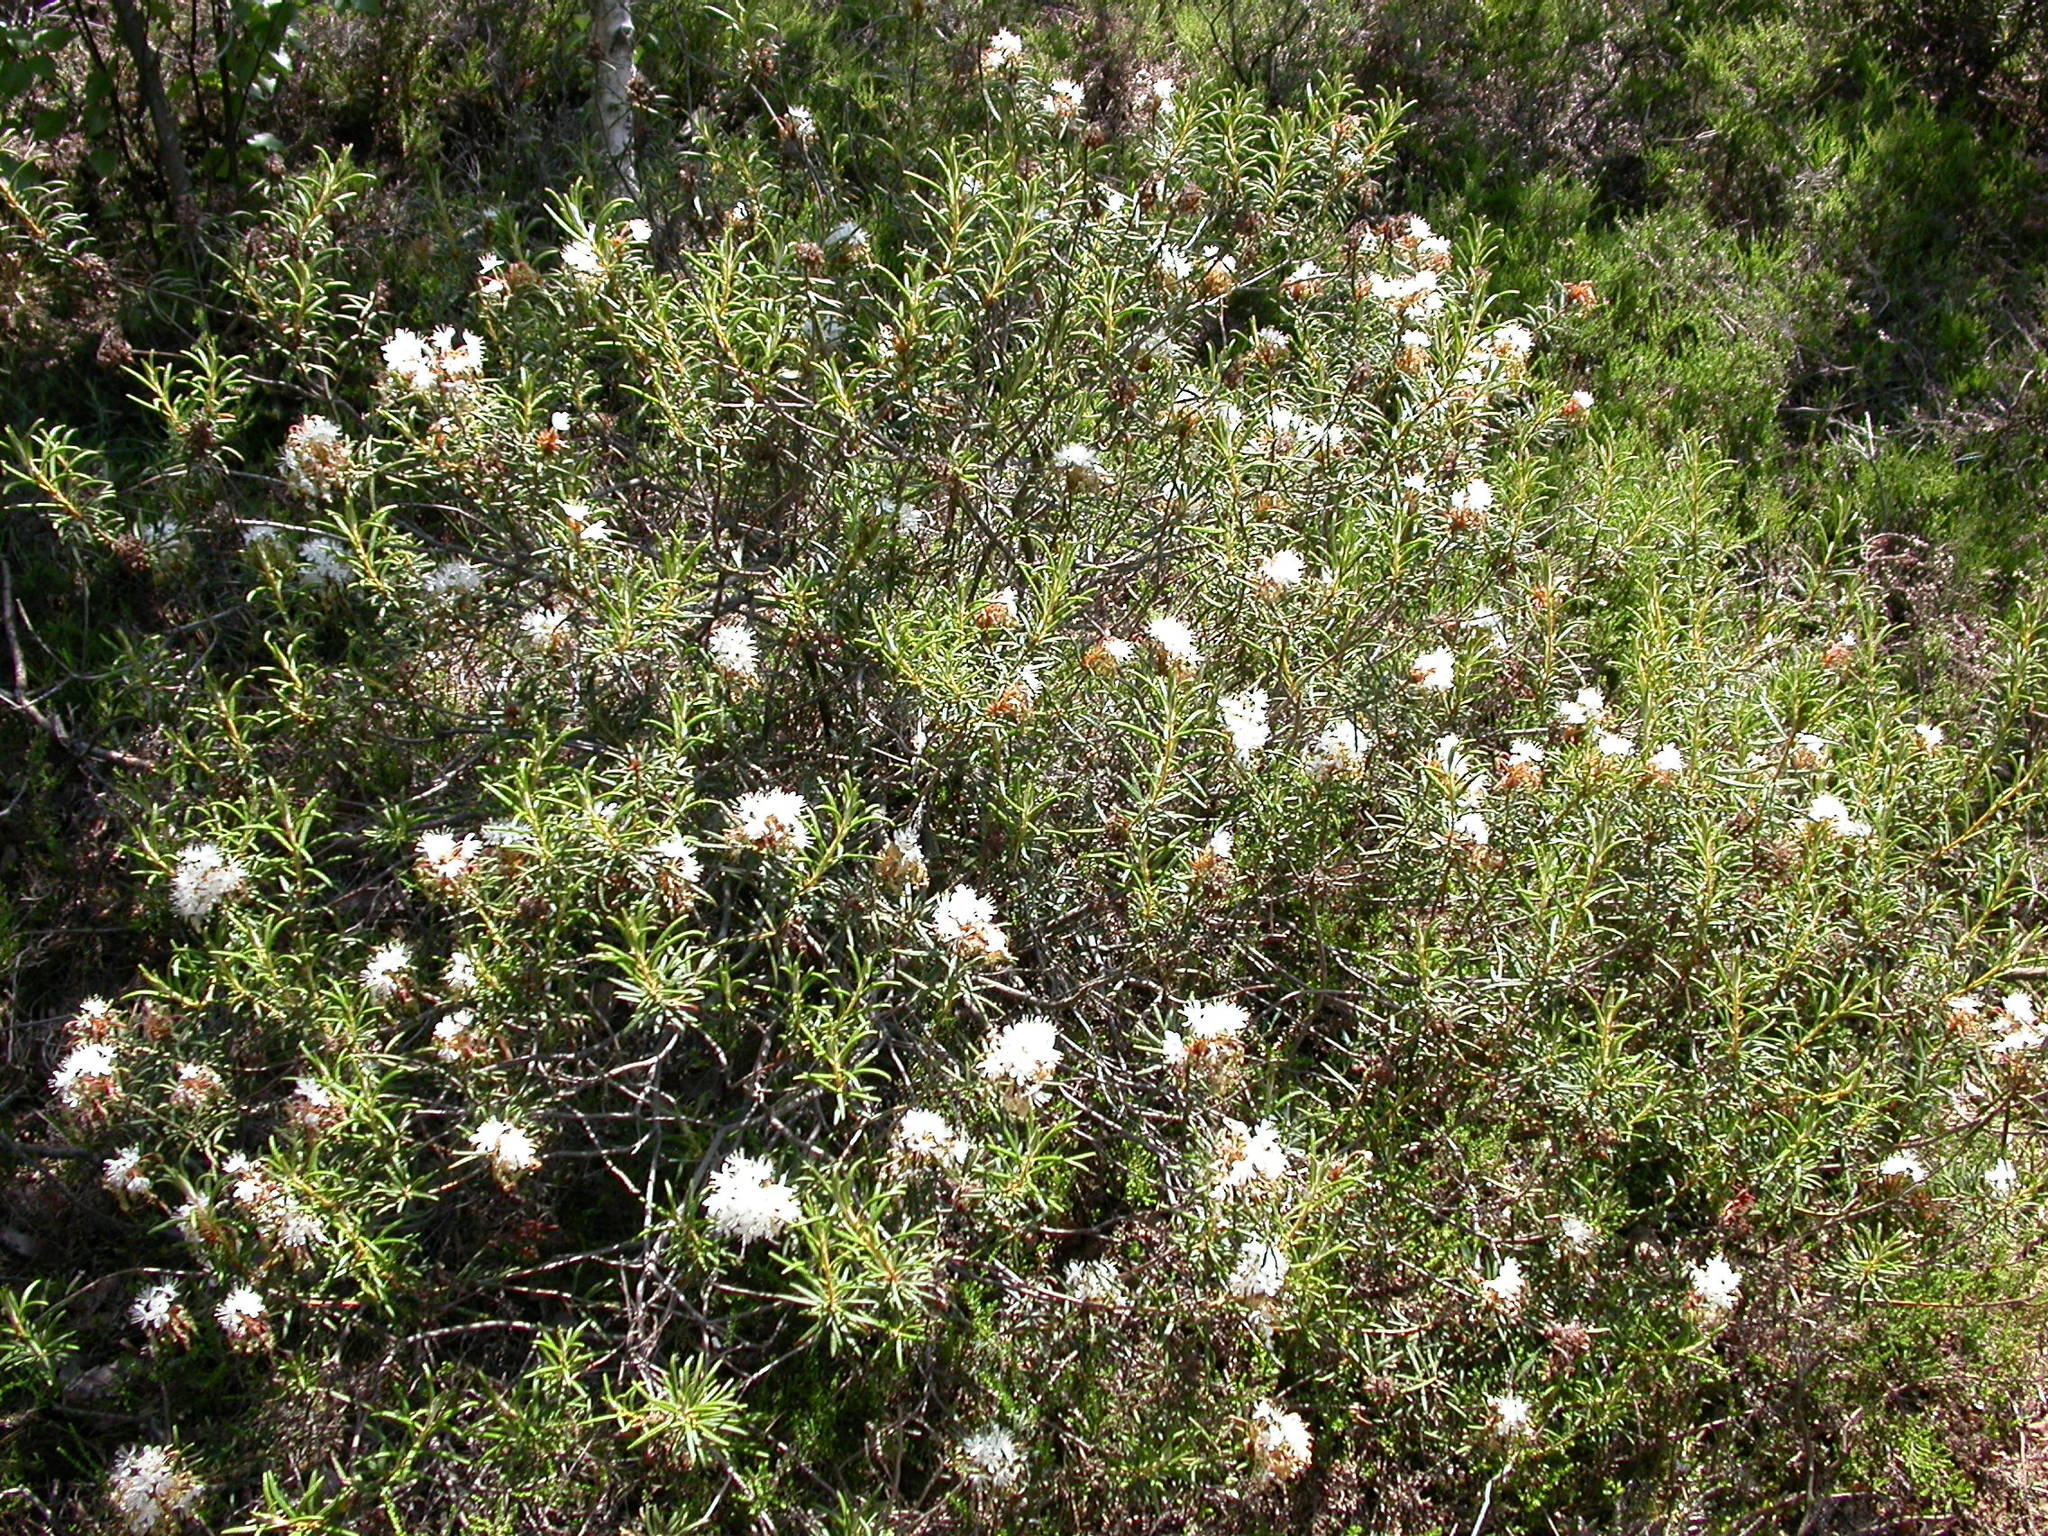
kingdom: Plantae
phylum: Tracheophyta
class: Magnoliopsida
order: Ericales
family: Ericaceae
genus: Rhododendron
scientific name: Rhododendron tomentosum
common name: Marsh labrador tea
